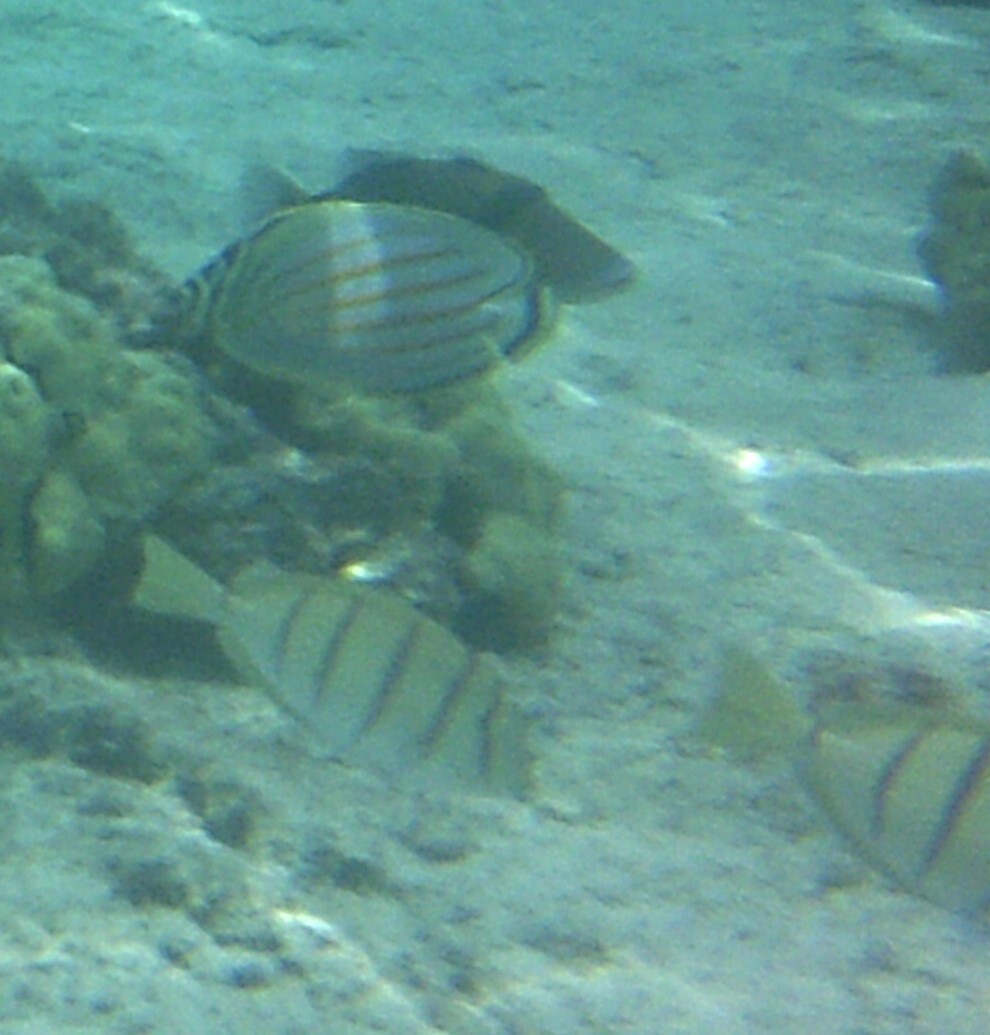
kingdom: Animalia
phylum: Chordata
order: Perciformes
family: Acanthuridae
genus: Acanthurus
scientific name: Acanthurus triostegus
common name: Convict surgeonfish
